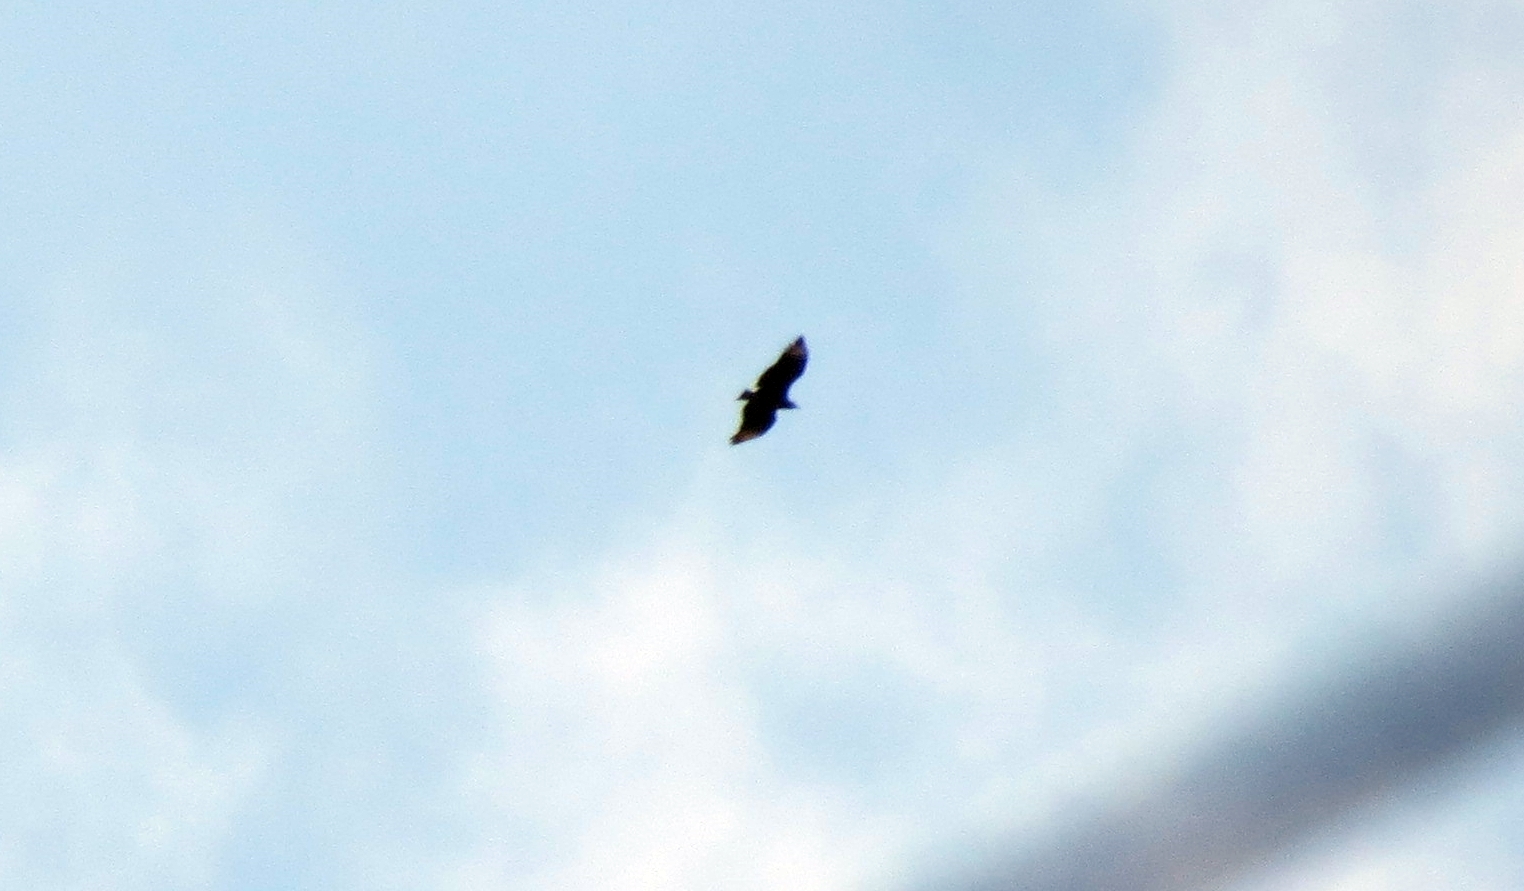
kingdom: Animalia
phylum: Chordata
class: Aves
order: Accipitriformes
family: Cathartidae
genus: Coragyps
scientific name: Coragyps atratus
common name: Black vulture
